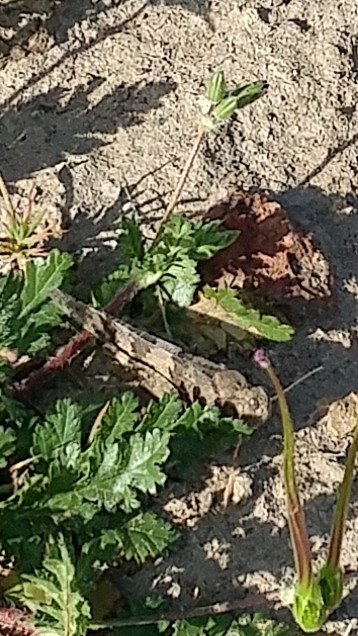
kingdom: Animalia
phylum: Arthropoda
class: Insecta
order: Orthoptera
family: Acrididae
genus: Trimerotropis
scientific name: Trimerotropis pallidipennis
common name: Pallid-winged grasshopper
